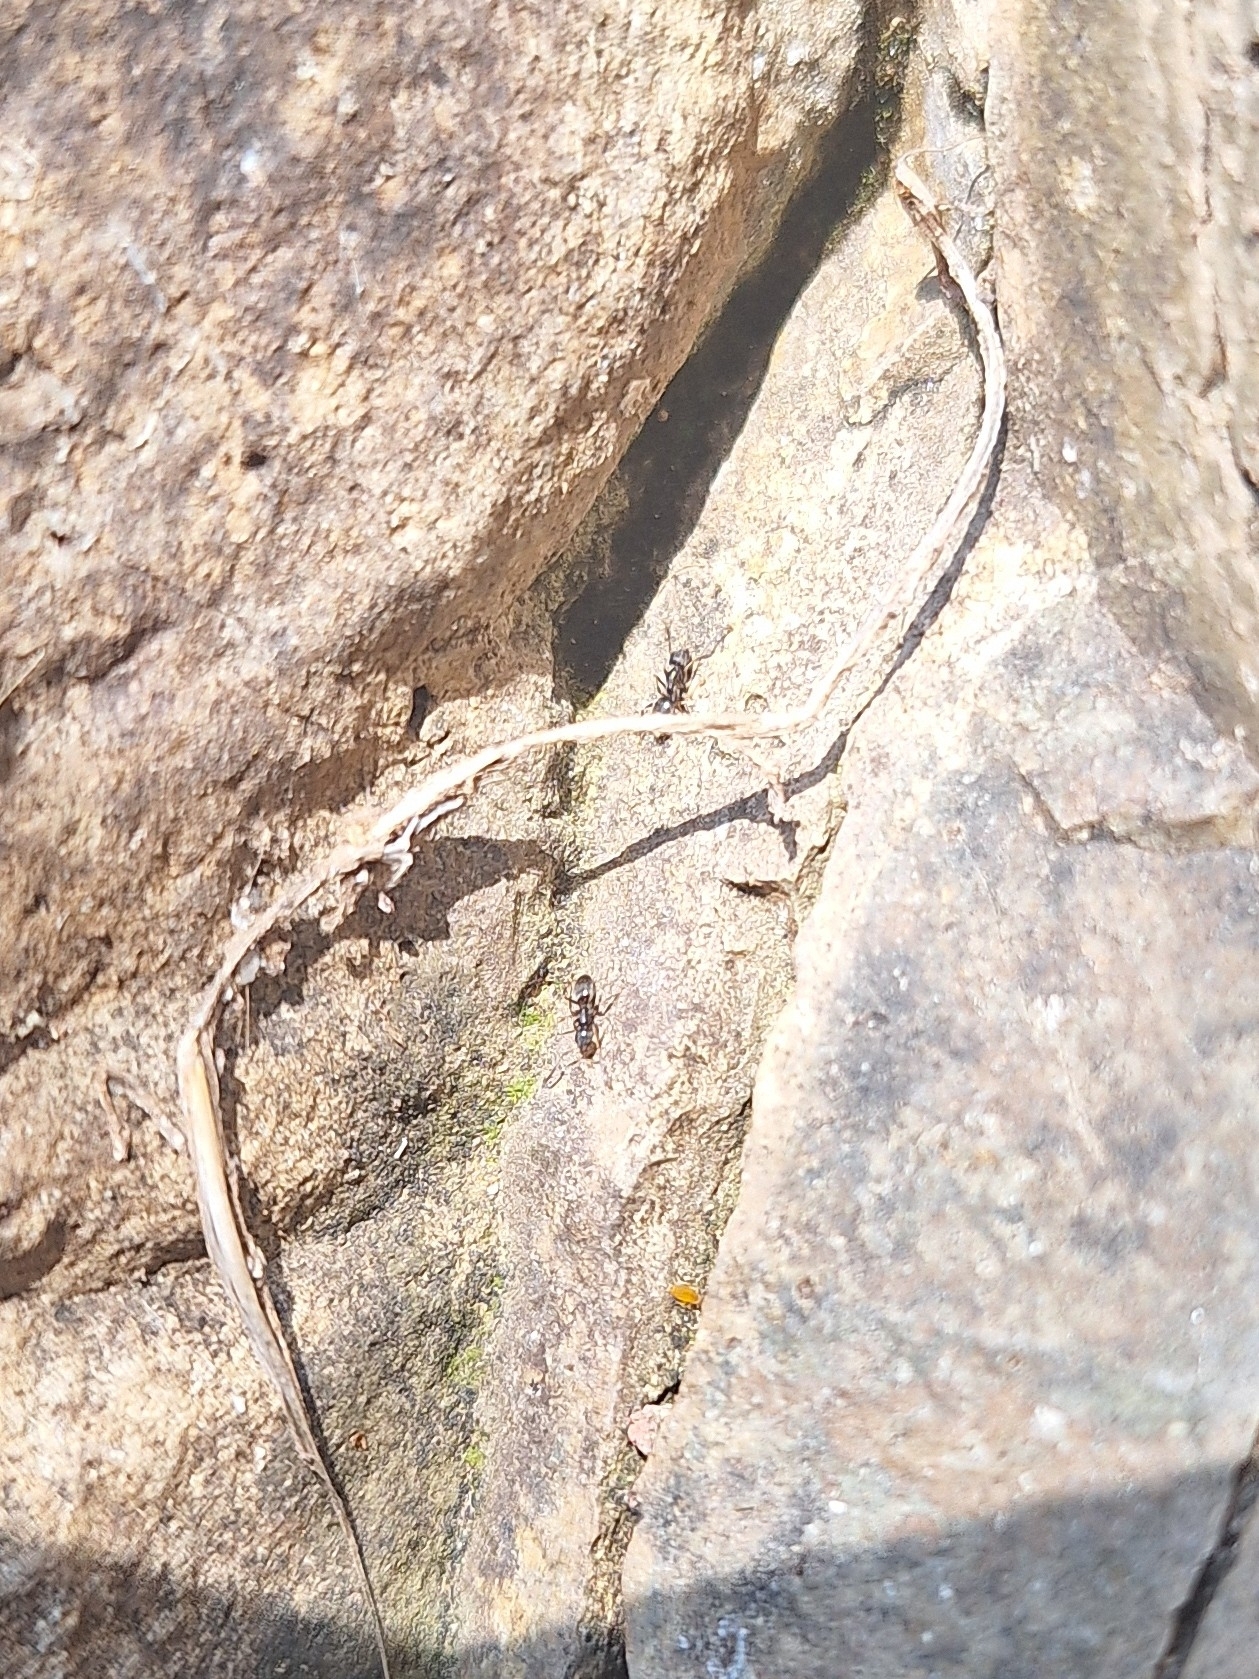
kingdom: Animalia
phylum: Arthropoda
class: Insecta
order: Hymenoptera
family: Formicidae
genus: Tapinoma
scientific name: Tapinoma sessile
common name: Odorous house ant
